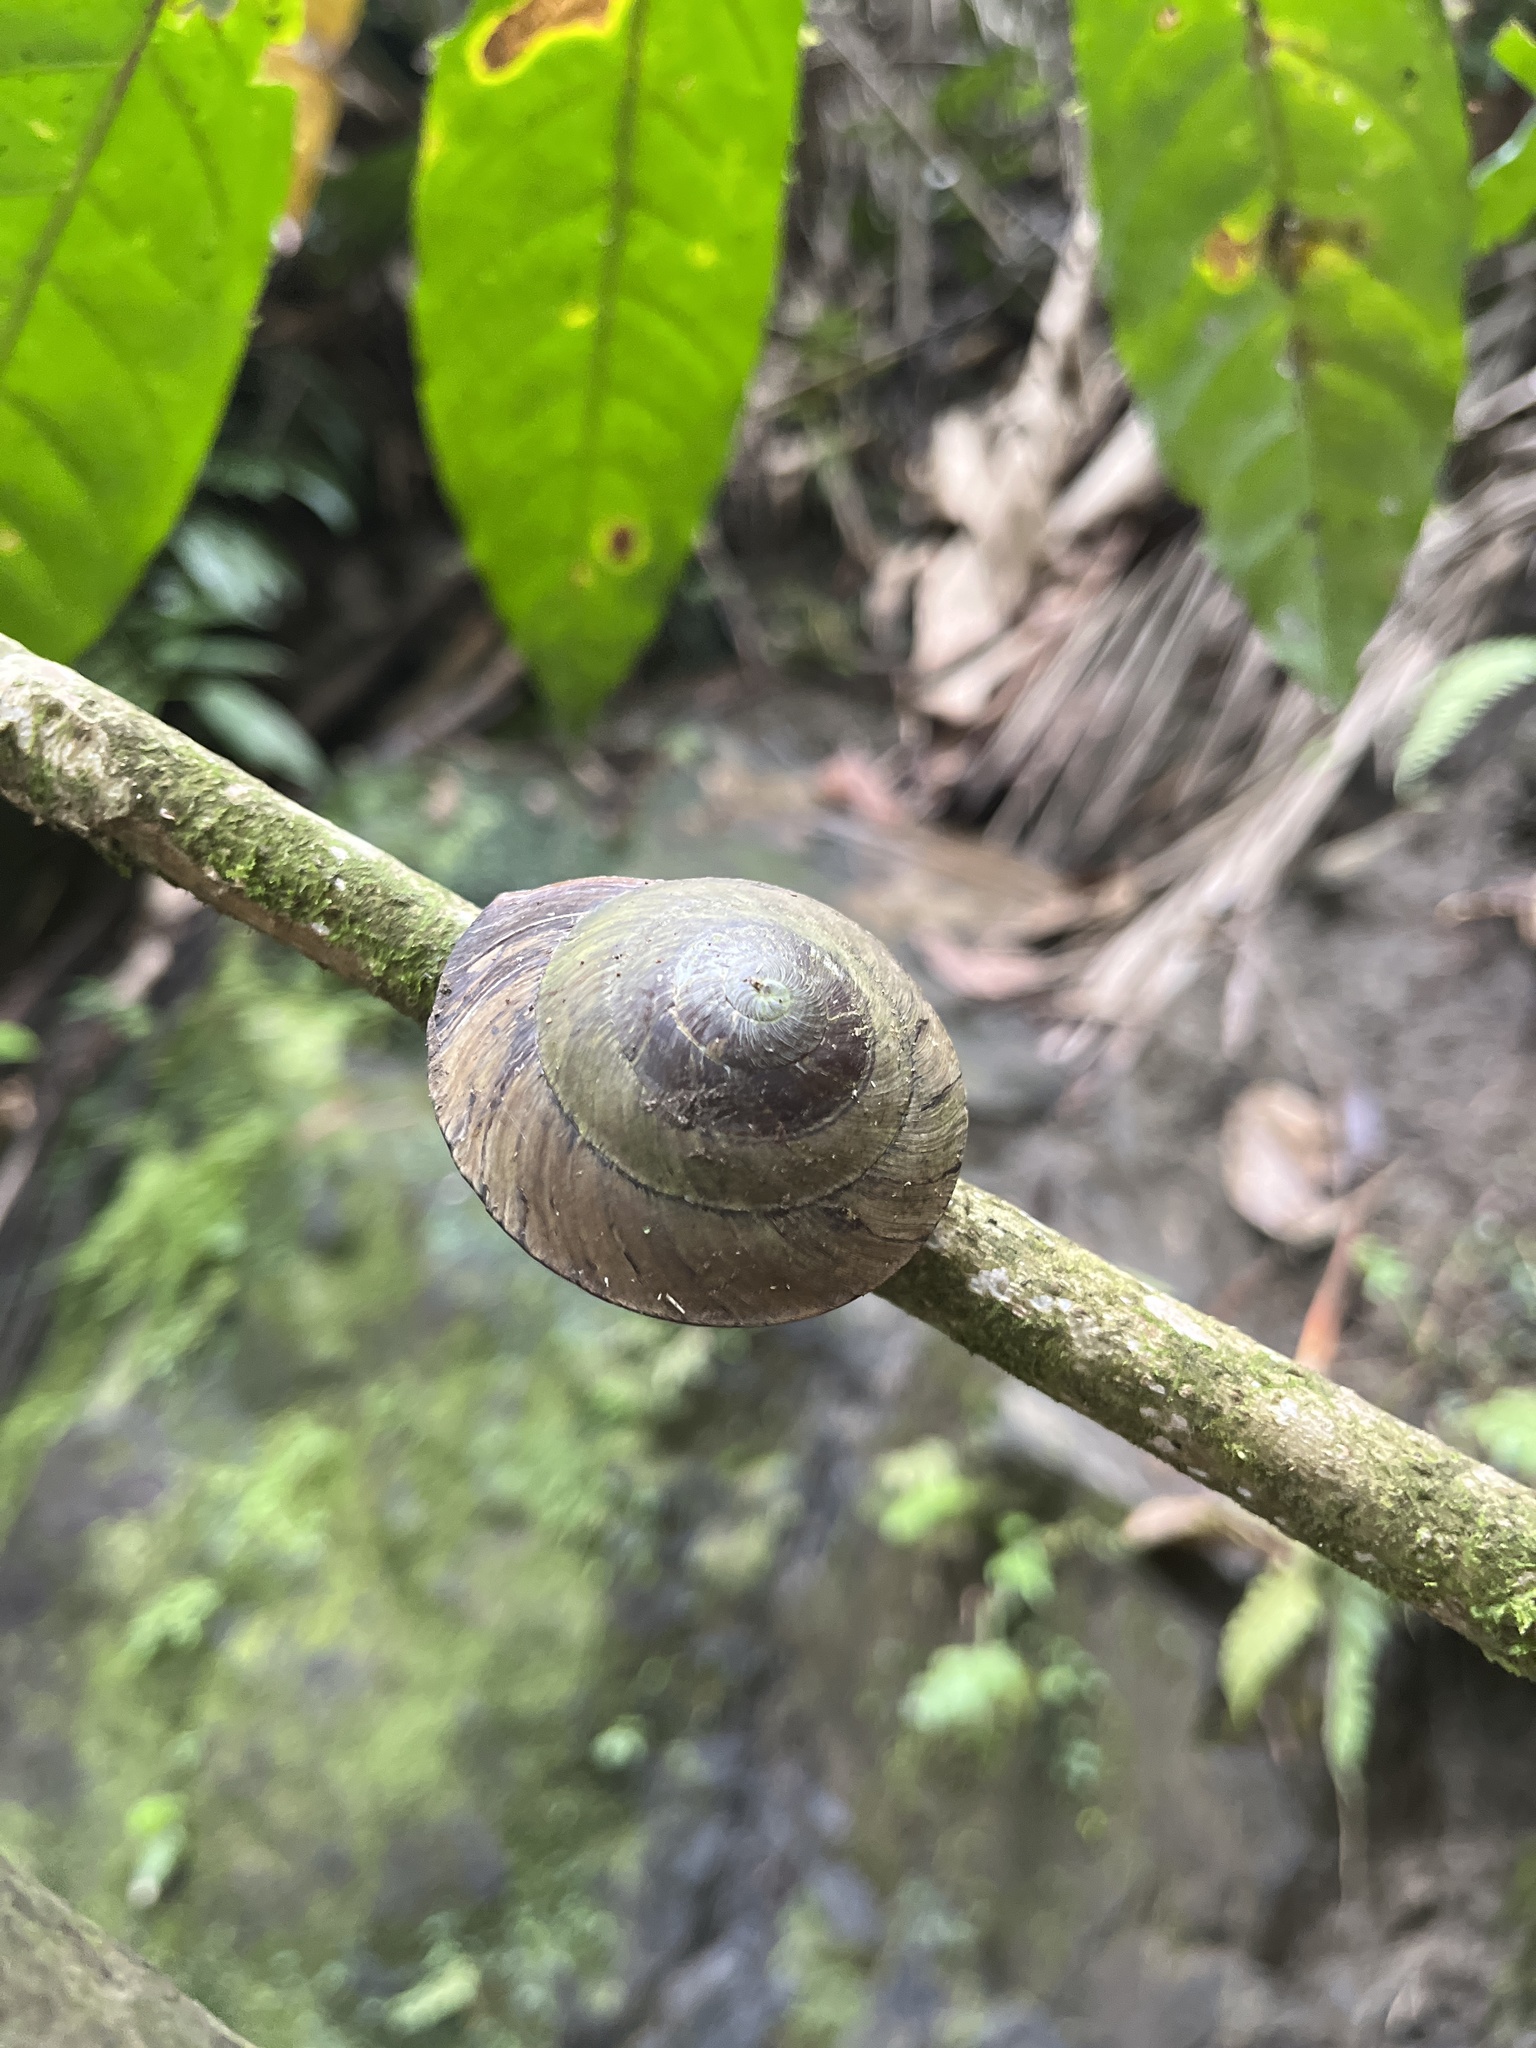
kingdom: Animalia
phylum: Mollusca
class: Gastropoda
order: Stylommatophora
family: Solaropsidae
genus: Caracolus
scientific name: Caracolus carocolla
